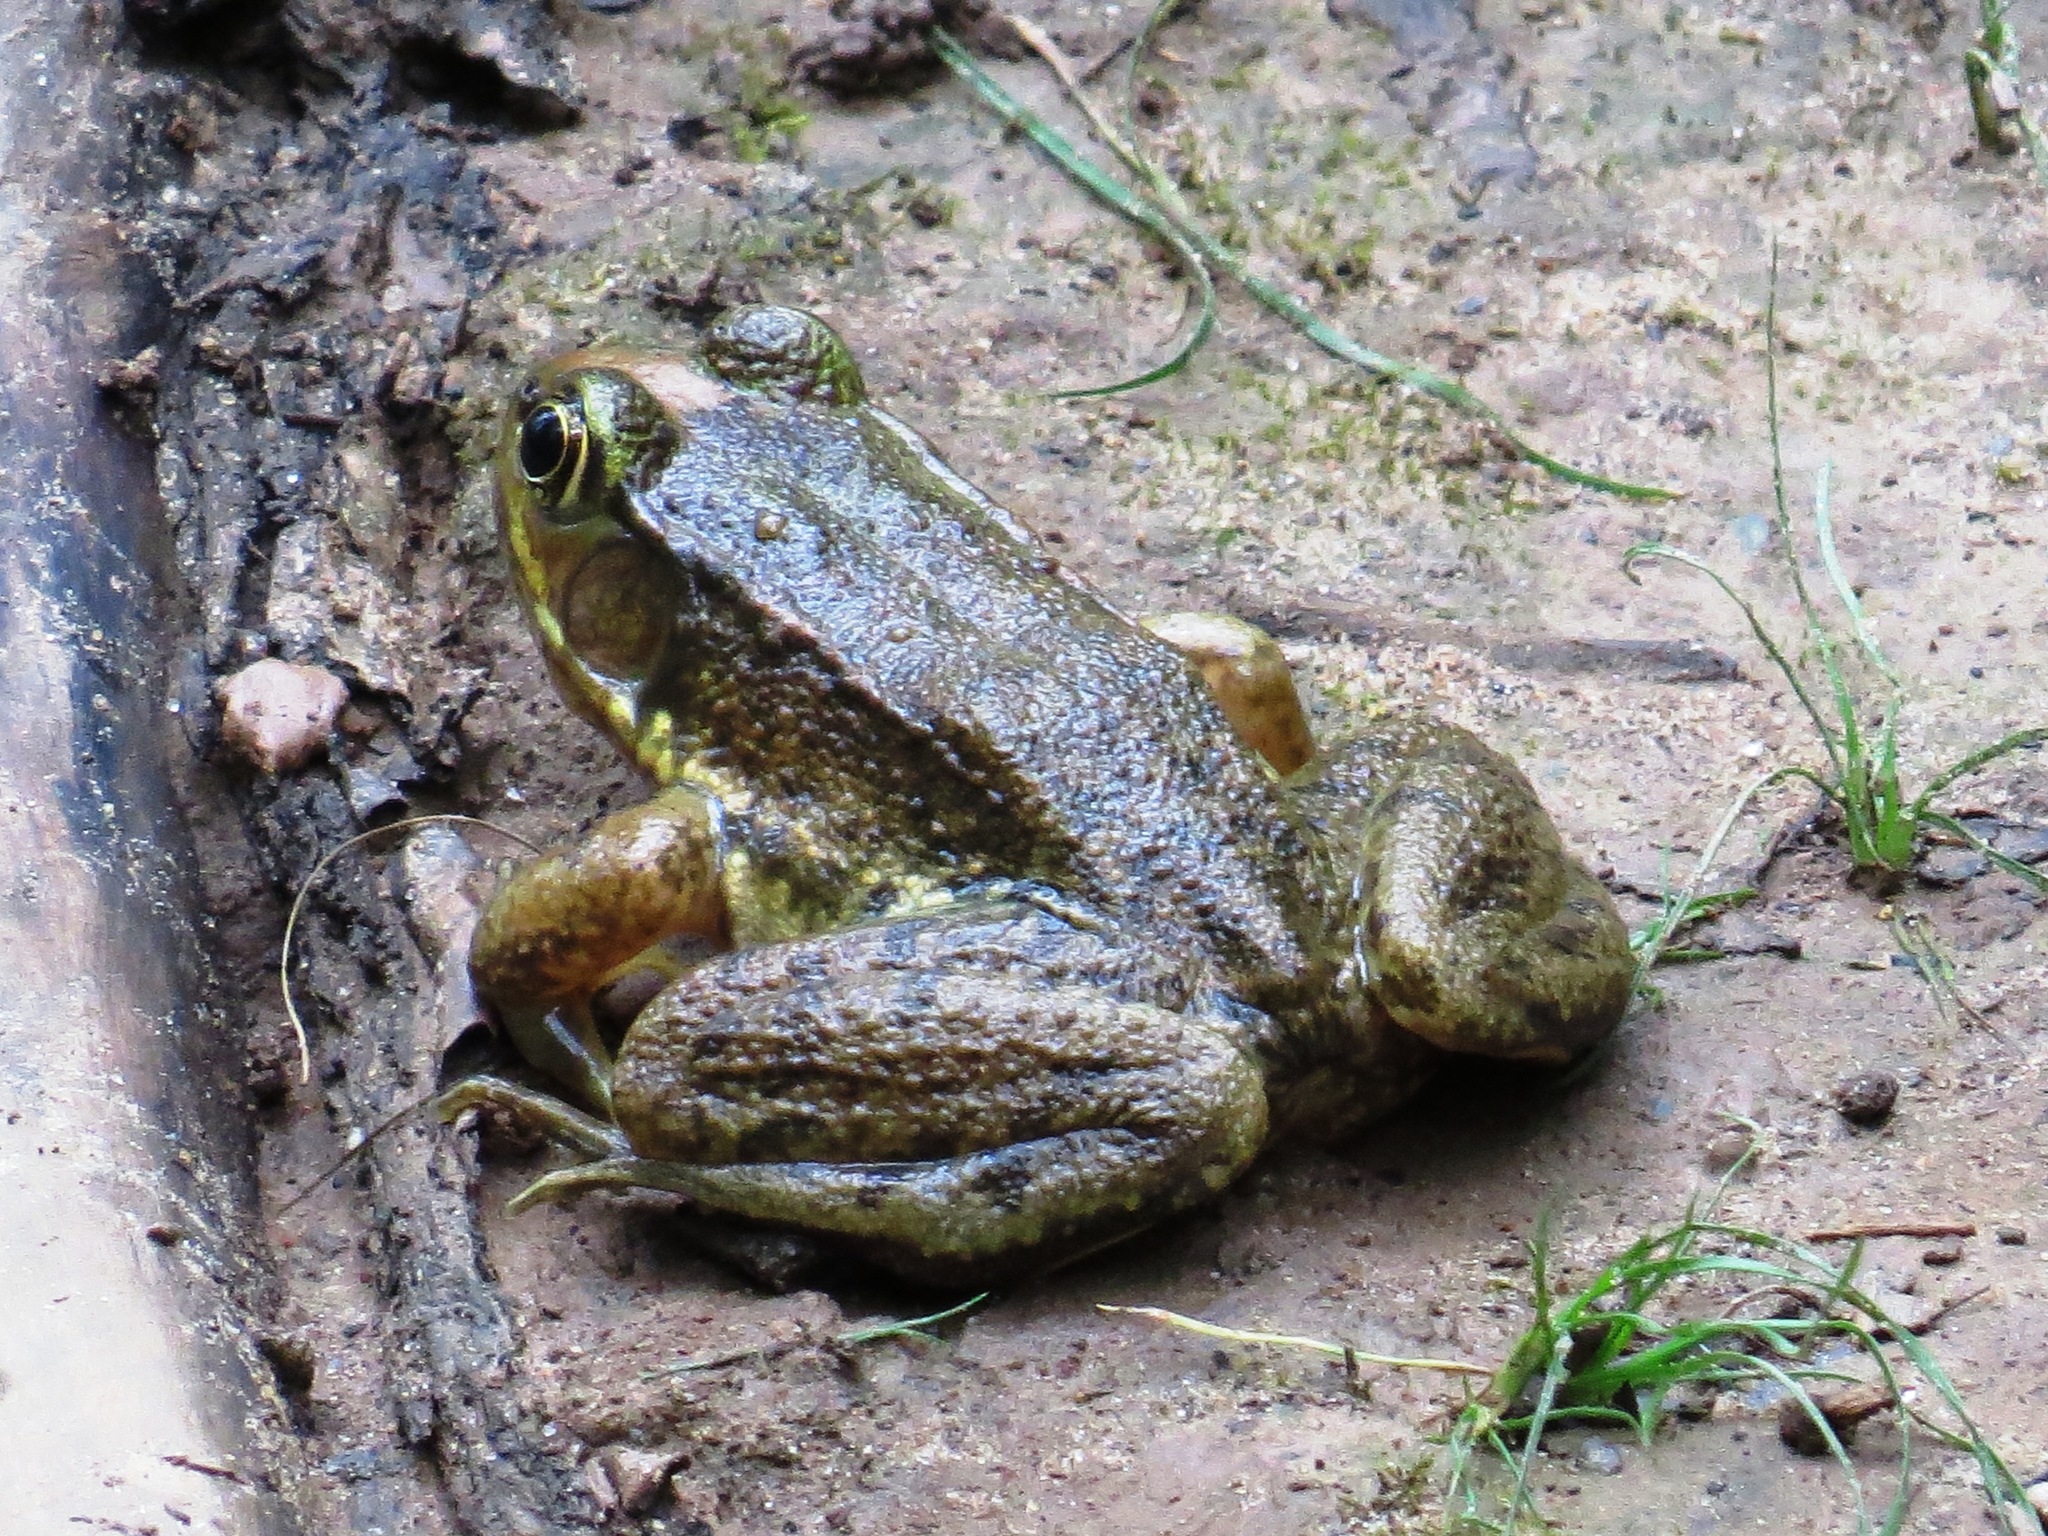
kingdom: Animalia
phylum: Chordata
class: Amphibia
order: Anura
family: Ranidae
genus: Lithobates
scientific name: Lithobates clamitans
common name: Green frog
